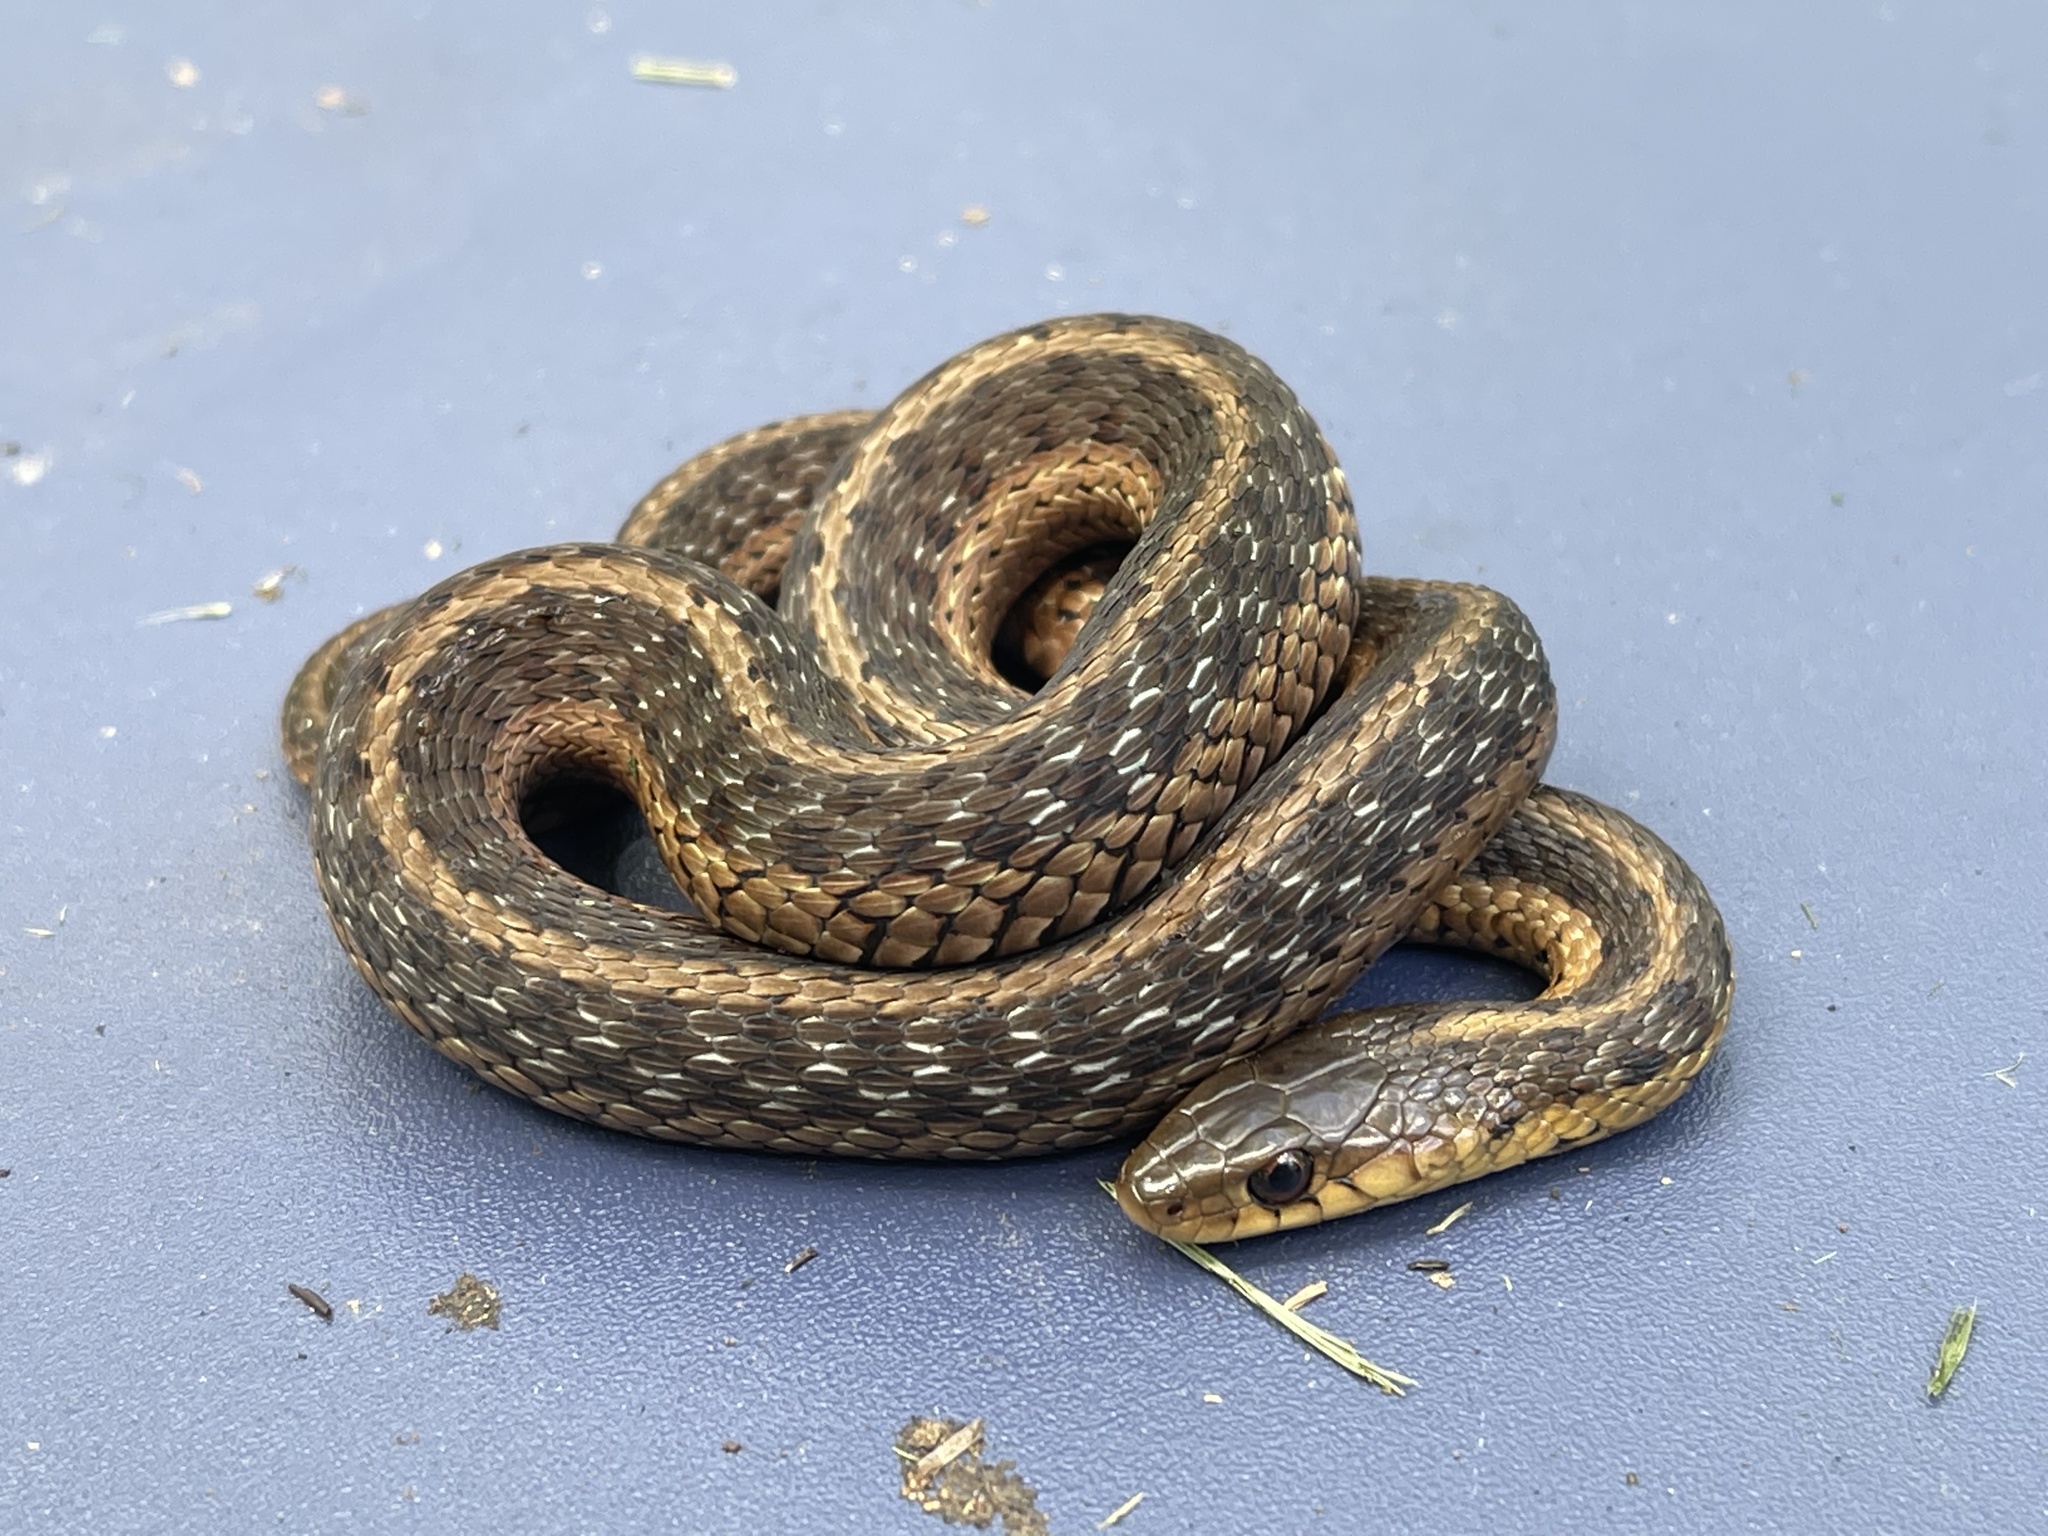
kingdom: Animalia
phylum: Chordata
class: Squamata
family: Colubridae
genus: Thamnophis
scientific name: Thamnophis sirtalis
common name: Common garter snake
